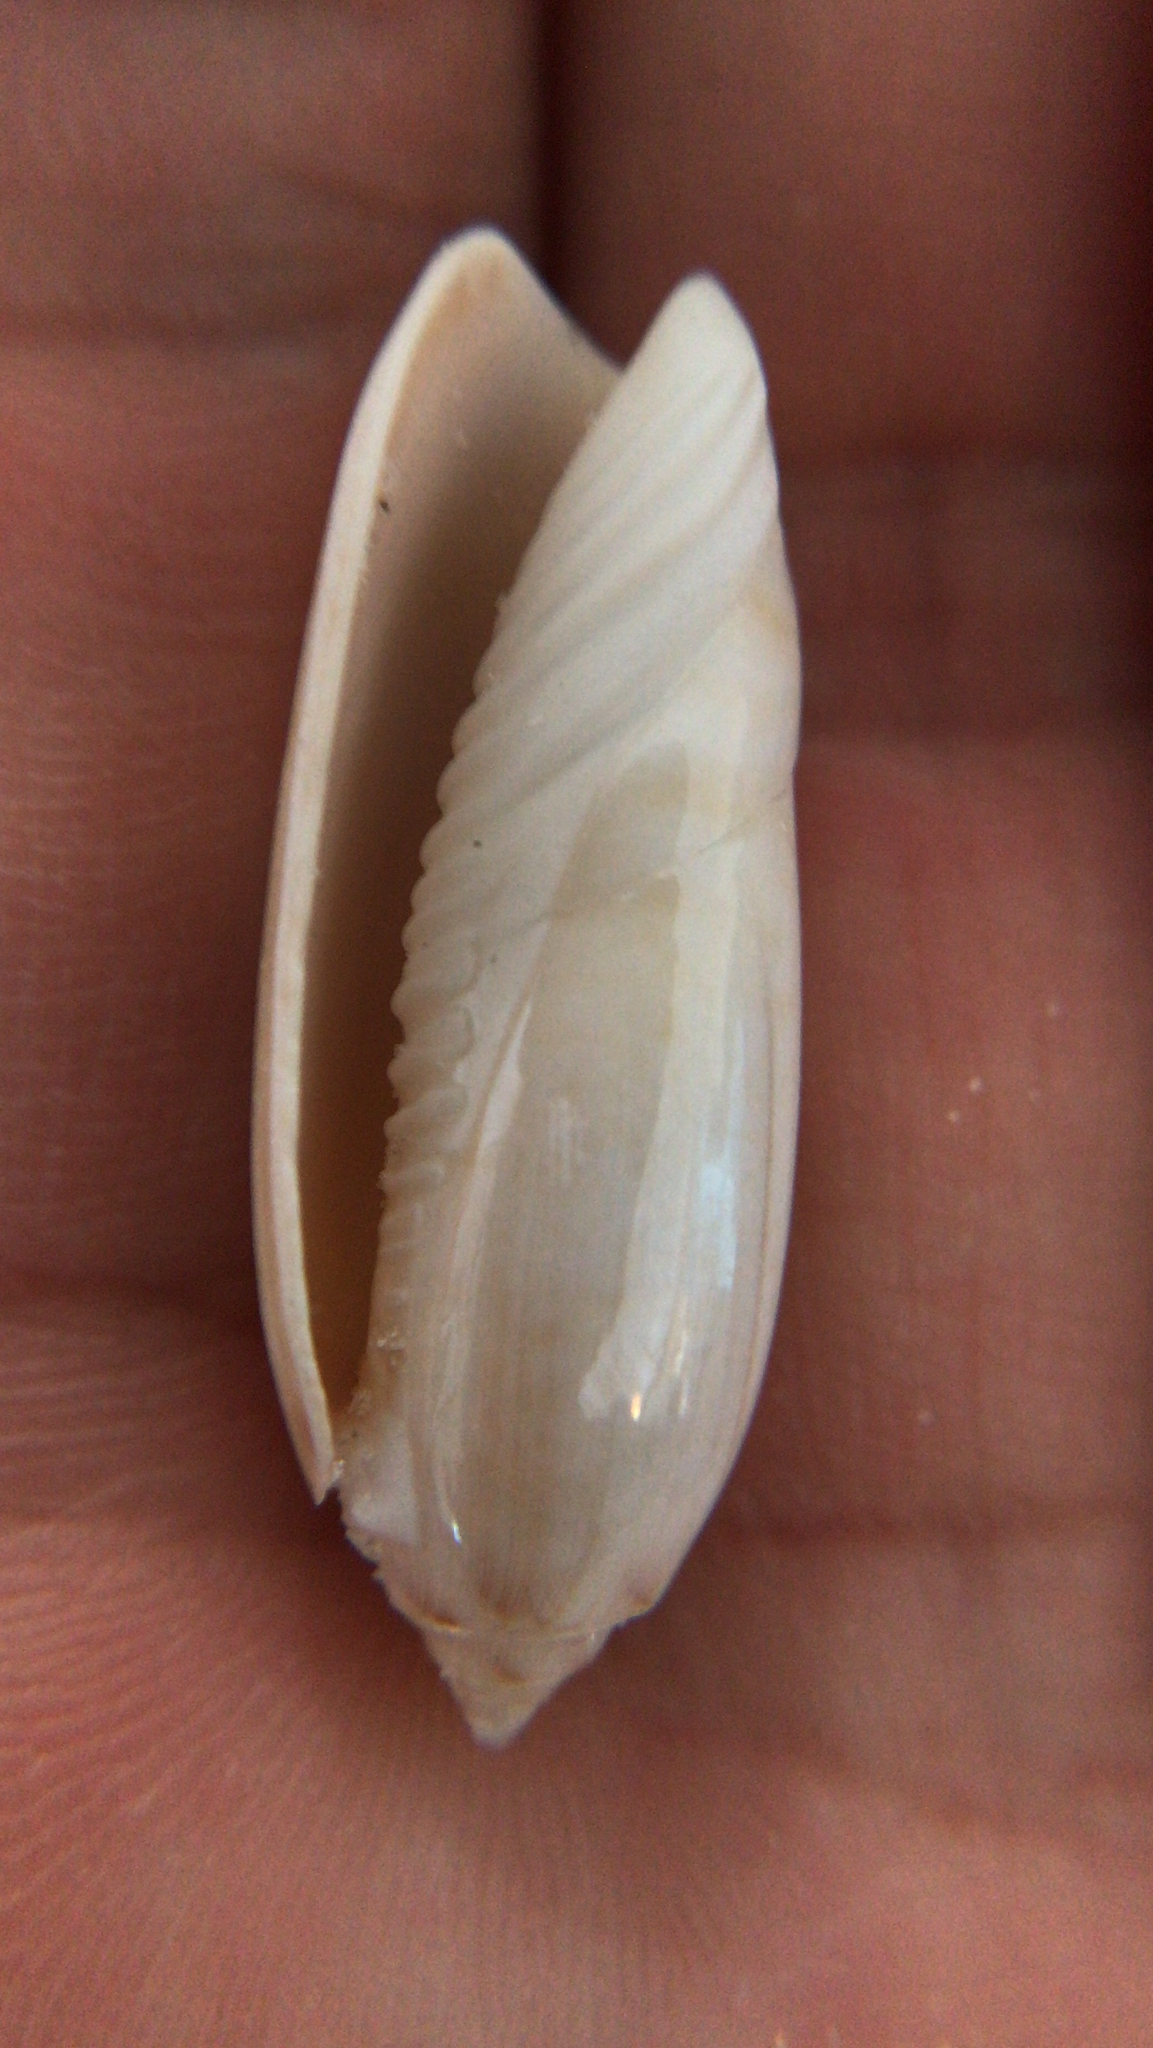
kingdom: Animalia
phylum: Mollusca
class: Gastropoda
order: Neogastropoda
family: Olividae
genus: Oliva
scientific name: Oliva sayana
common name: Lettered olive
